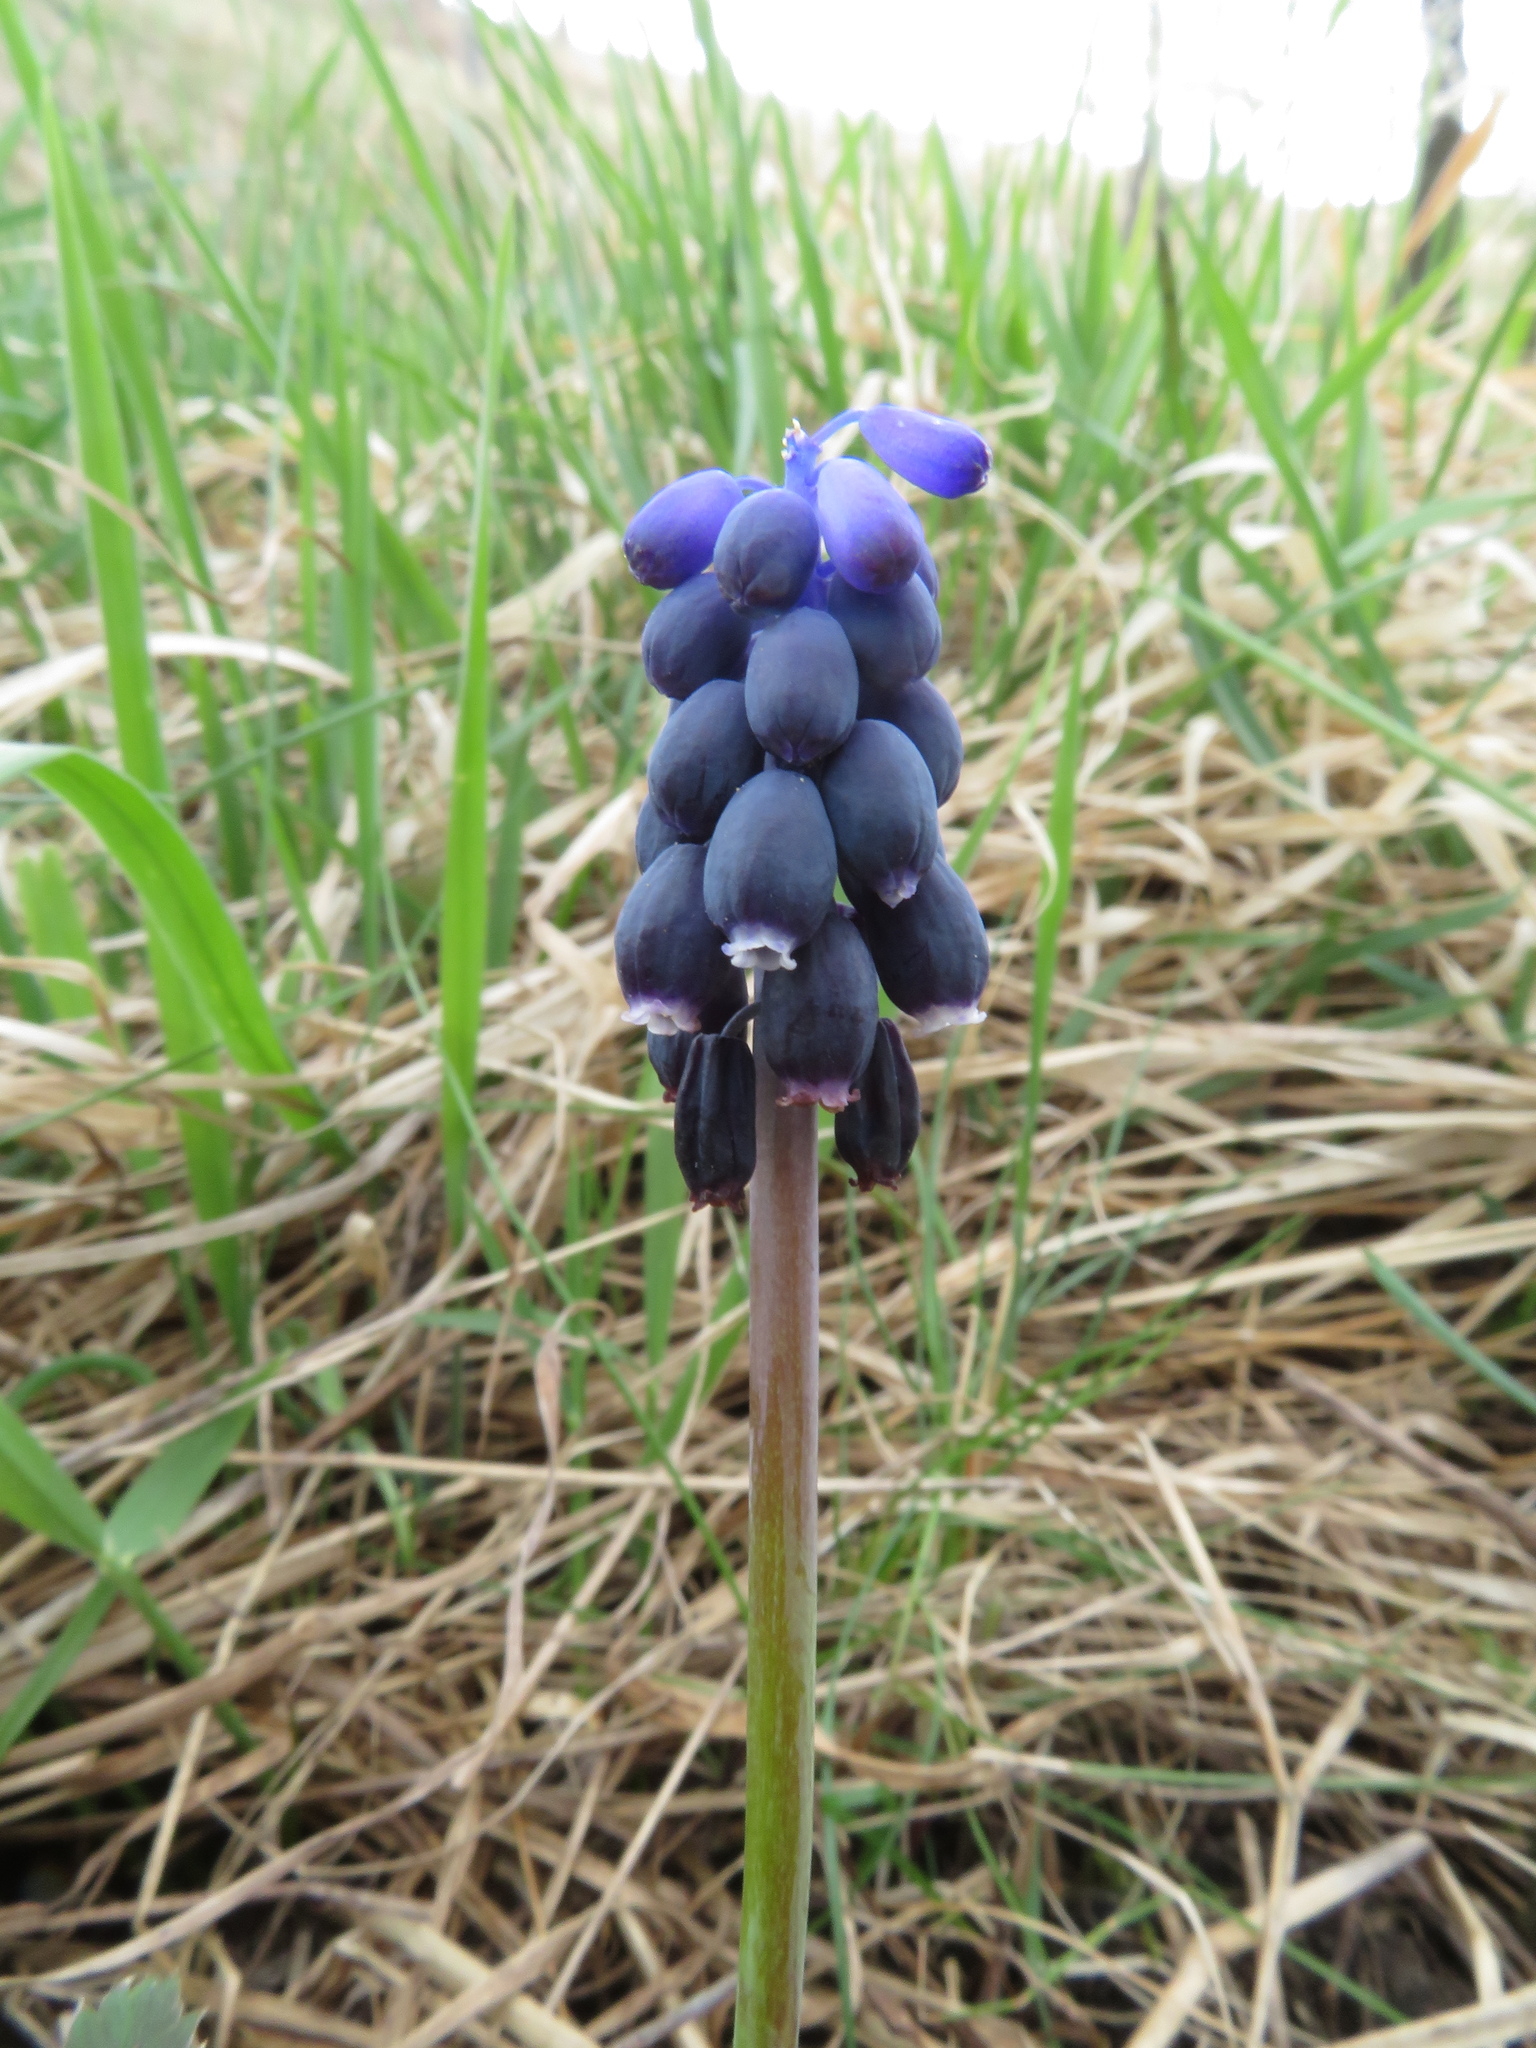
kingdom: Plantae
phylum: Tracheophyta
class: Liliopsida
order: Asparagales
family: Asparagaceae
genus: Muscari
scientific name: Muscari neglectum
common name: Grape-hyacinth
